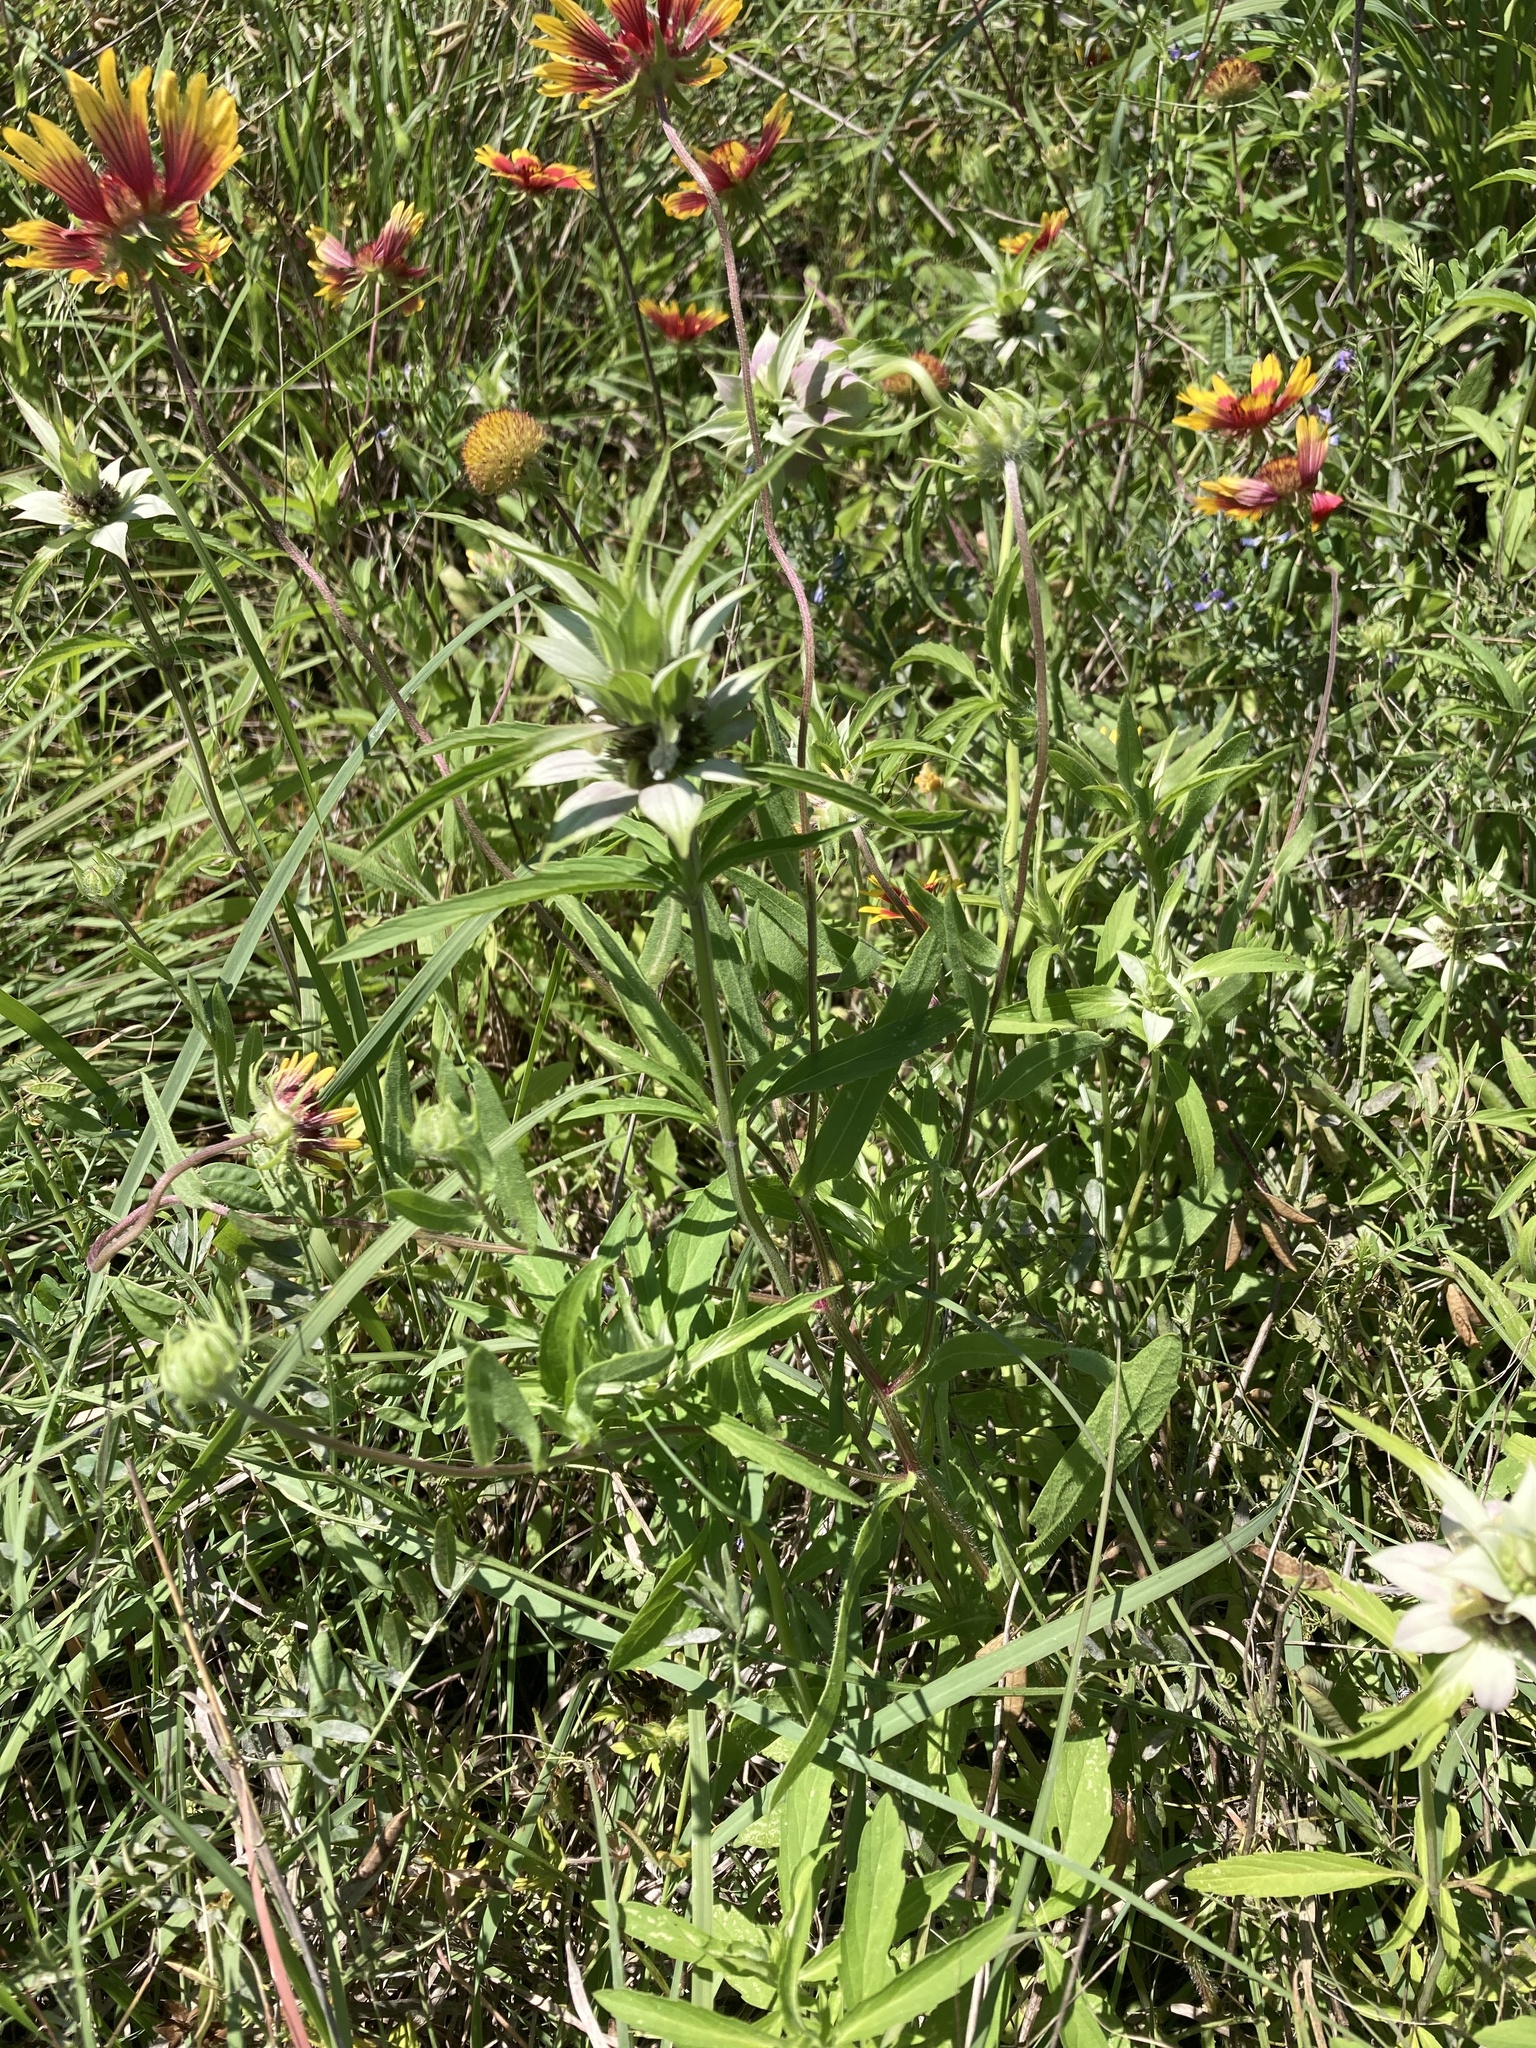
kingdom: Plantae
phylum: Tracheophyta
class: Magnoliopsida
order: Lamiales
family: Lamiaceae
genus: Monarda
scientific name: Monarda punctata
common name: Dotted monarda
